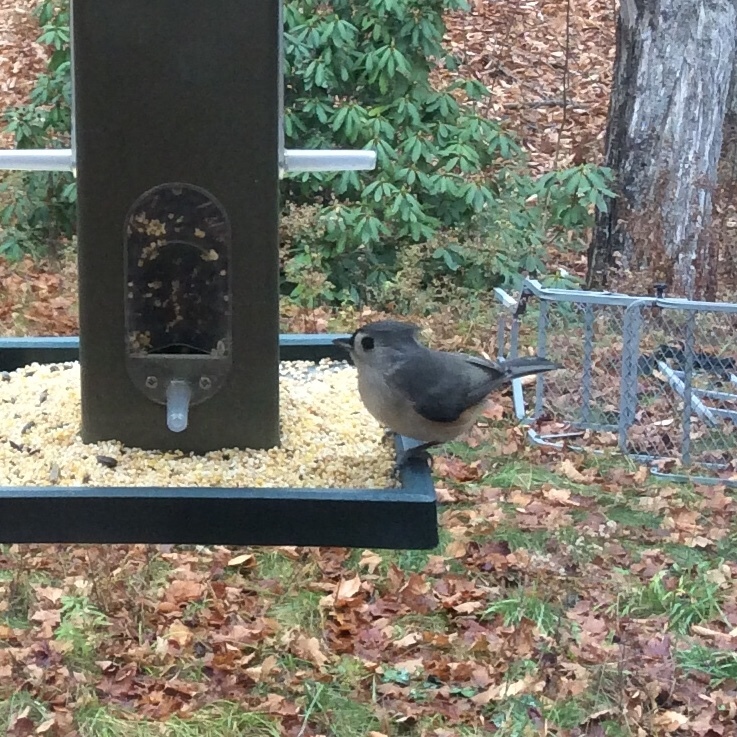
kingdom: Animalia
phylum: Chordata
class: Aves
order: Passeriformes
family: Paridae
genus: Baeolophus
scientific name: Baeolophus bicolor
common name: Tufted titmouse
